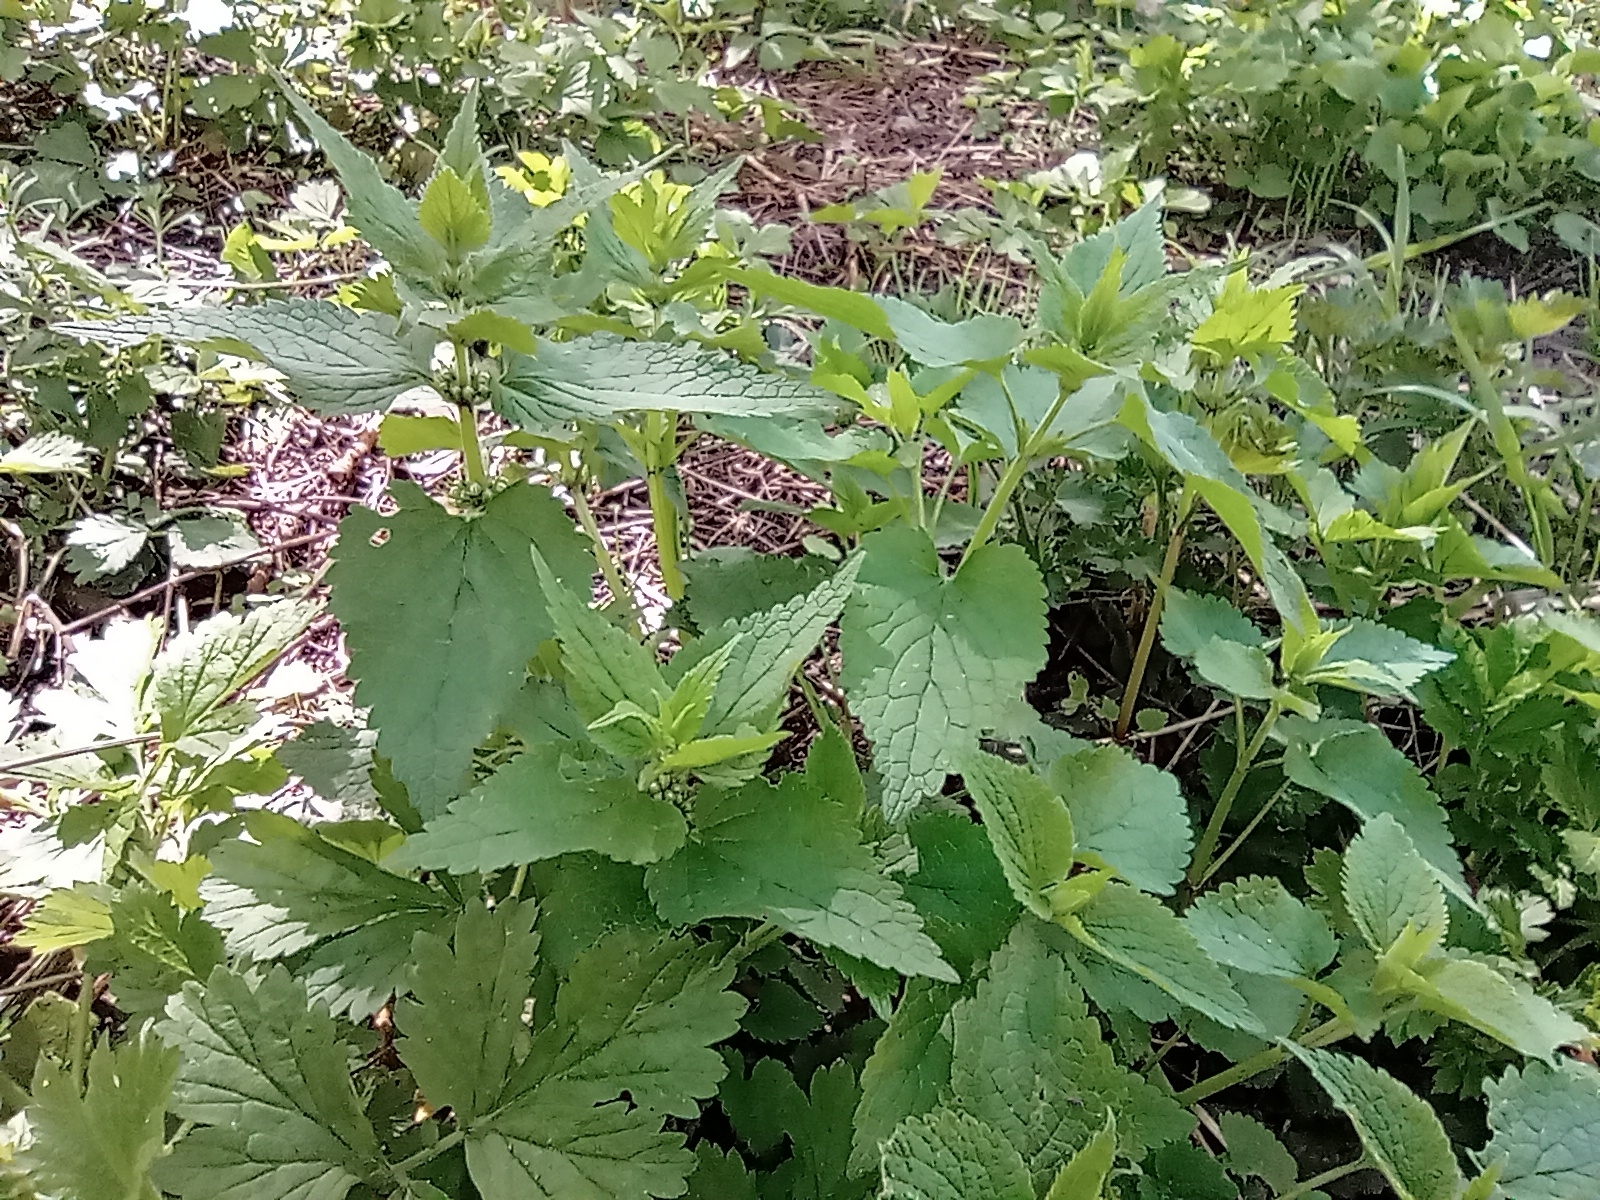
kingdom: Plantae
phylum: Tracheophyta
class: Magnoliopsida
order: Lamiales
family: Lamiaceae
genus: Lamium
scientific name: Lamium album
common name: White dead-nettle
